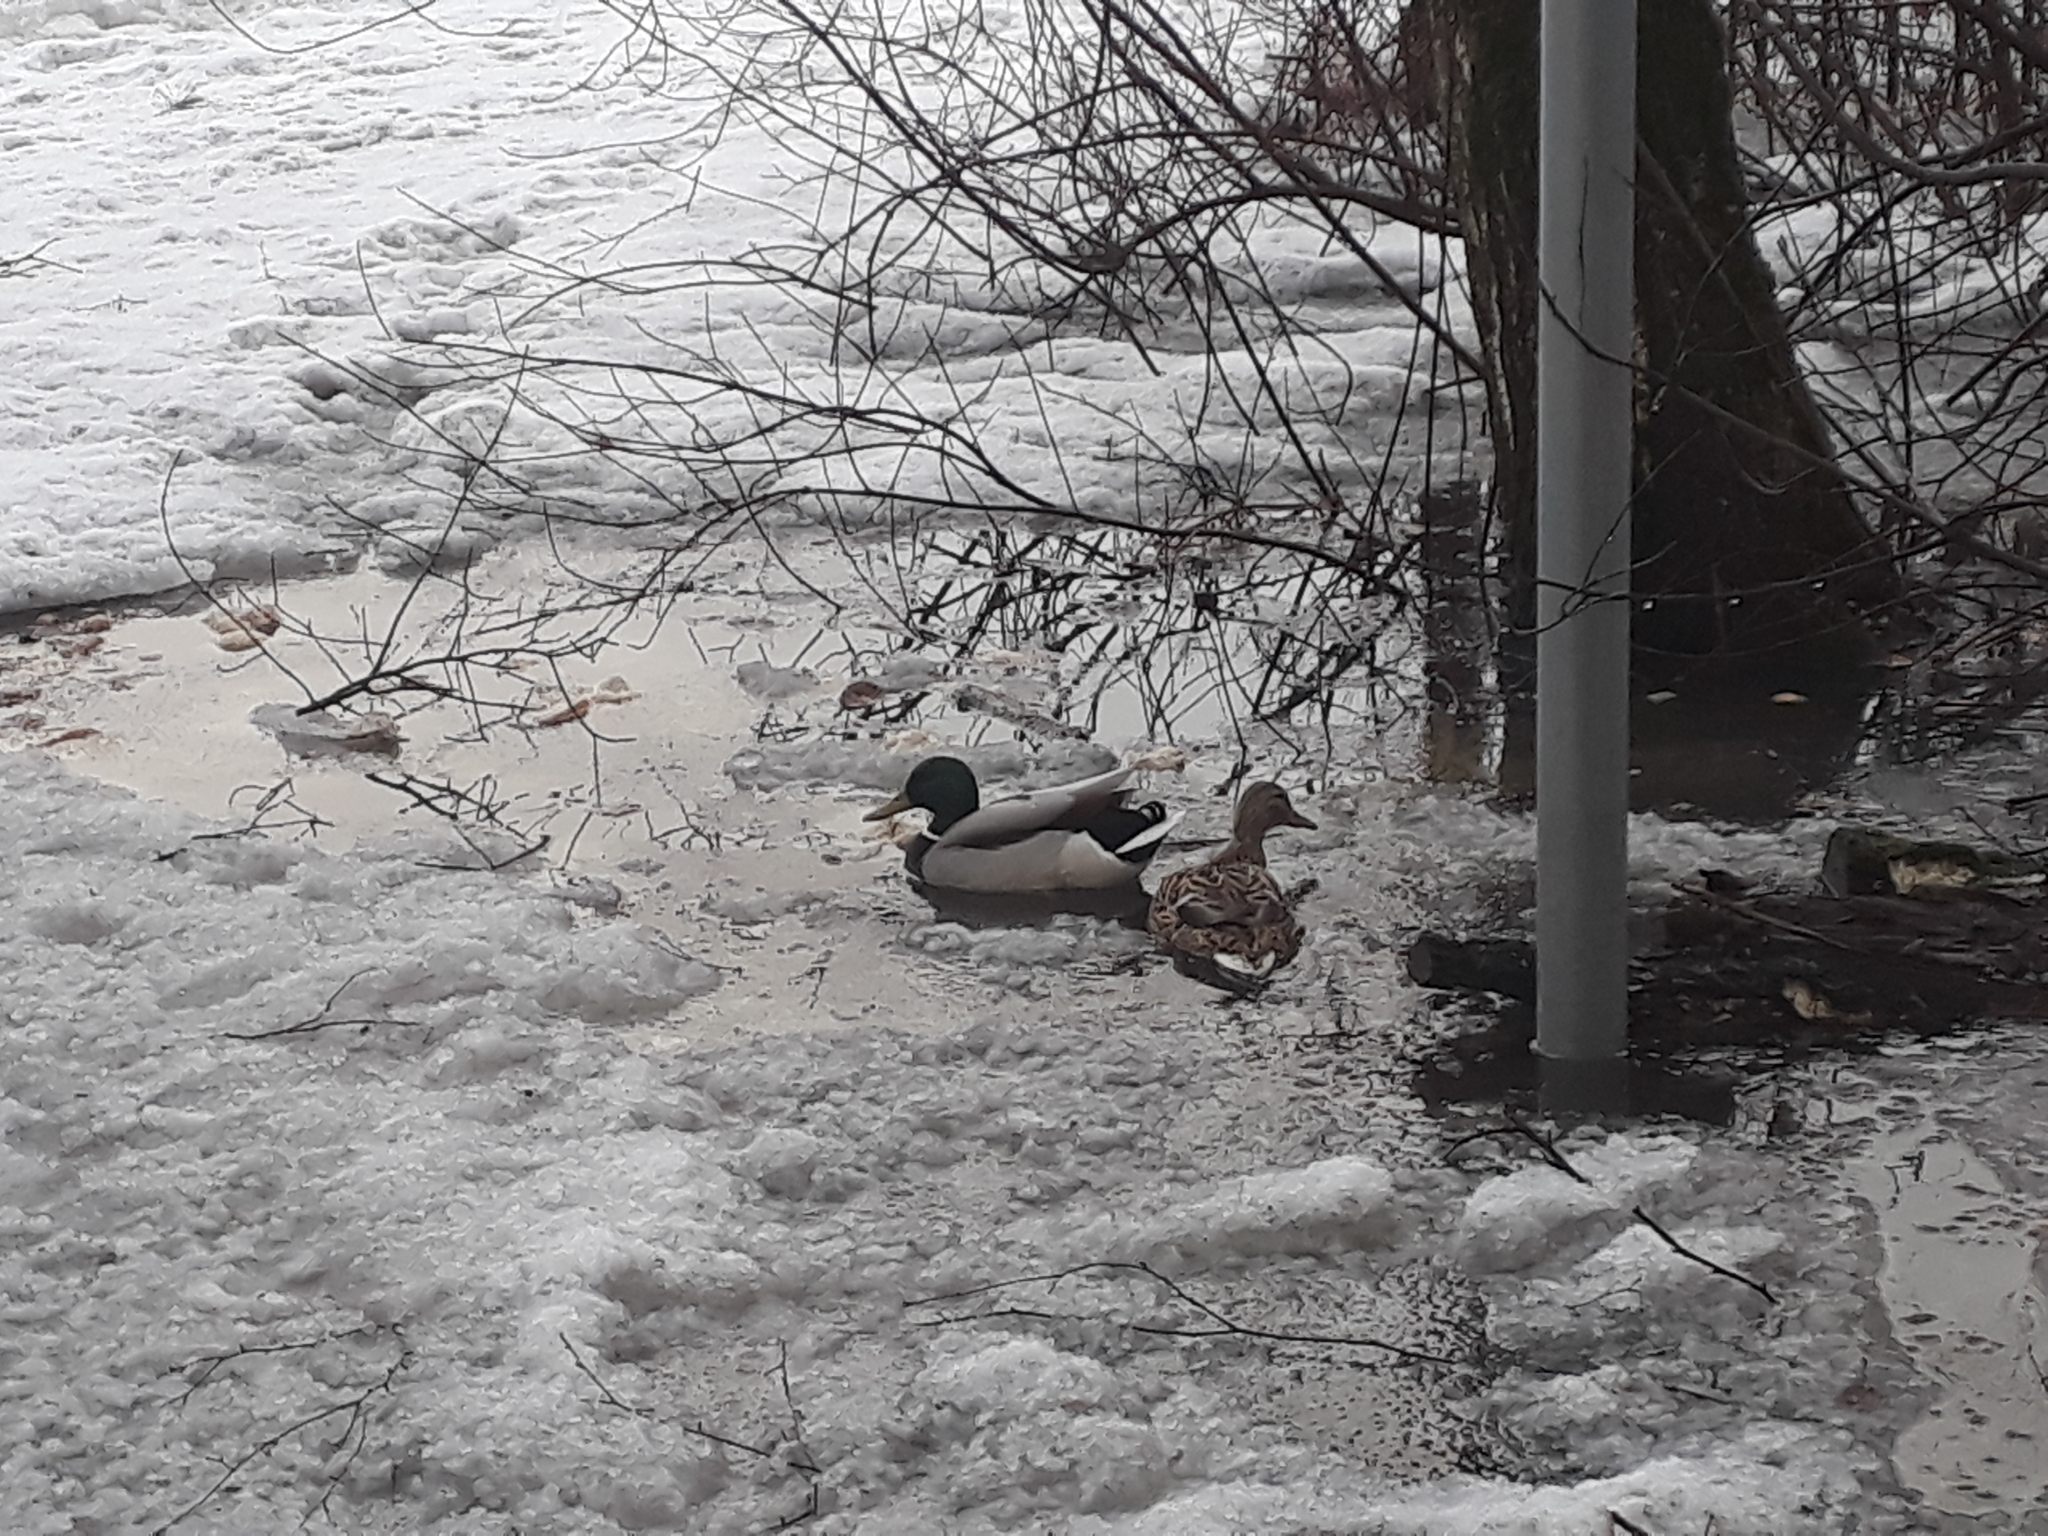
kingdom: Animalia
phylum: Chordata
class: Aves
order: Anseriformes
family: Anatidae
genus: Anas
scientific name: Anas platyrhynchos
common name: Mallard
